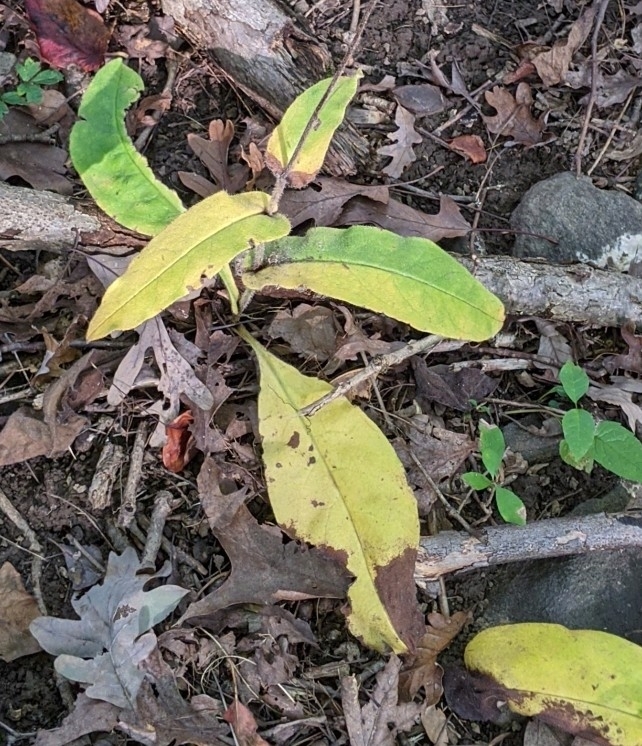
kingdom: Plantae
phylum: Tracheophyta
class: Magnoliopsida
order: Boraginales
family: Boraginaceae
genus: Andersonglossum
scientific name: Andersonglossum virginianum
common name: Wild comfrey
